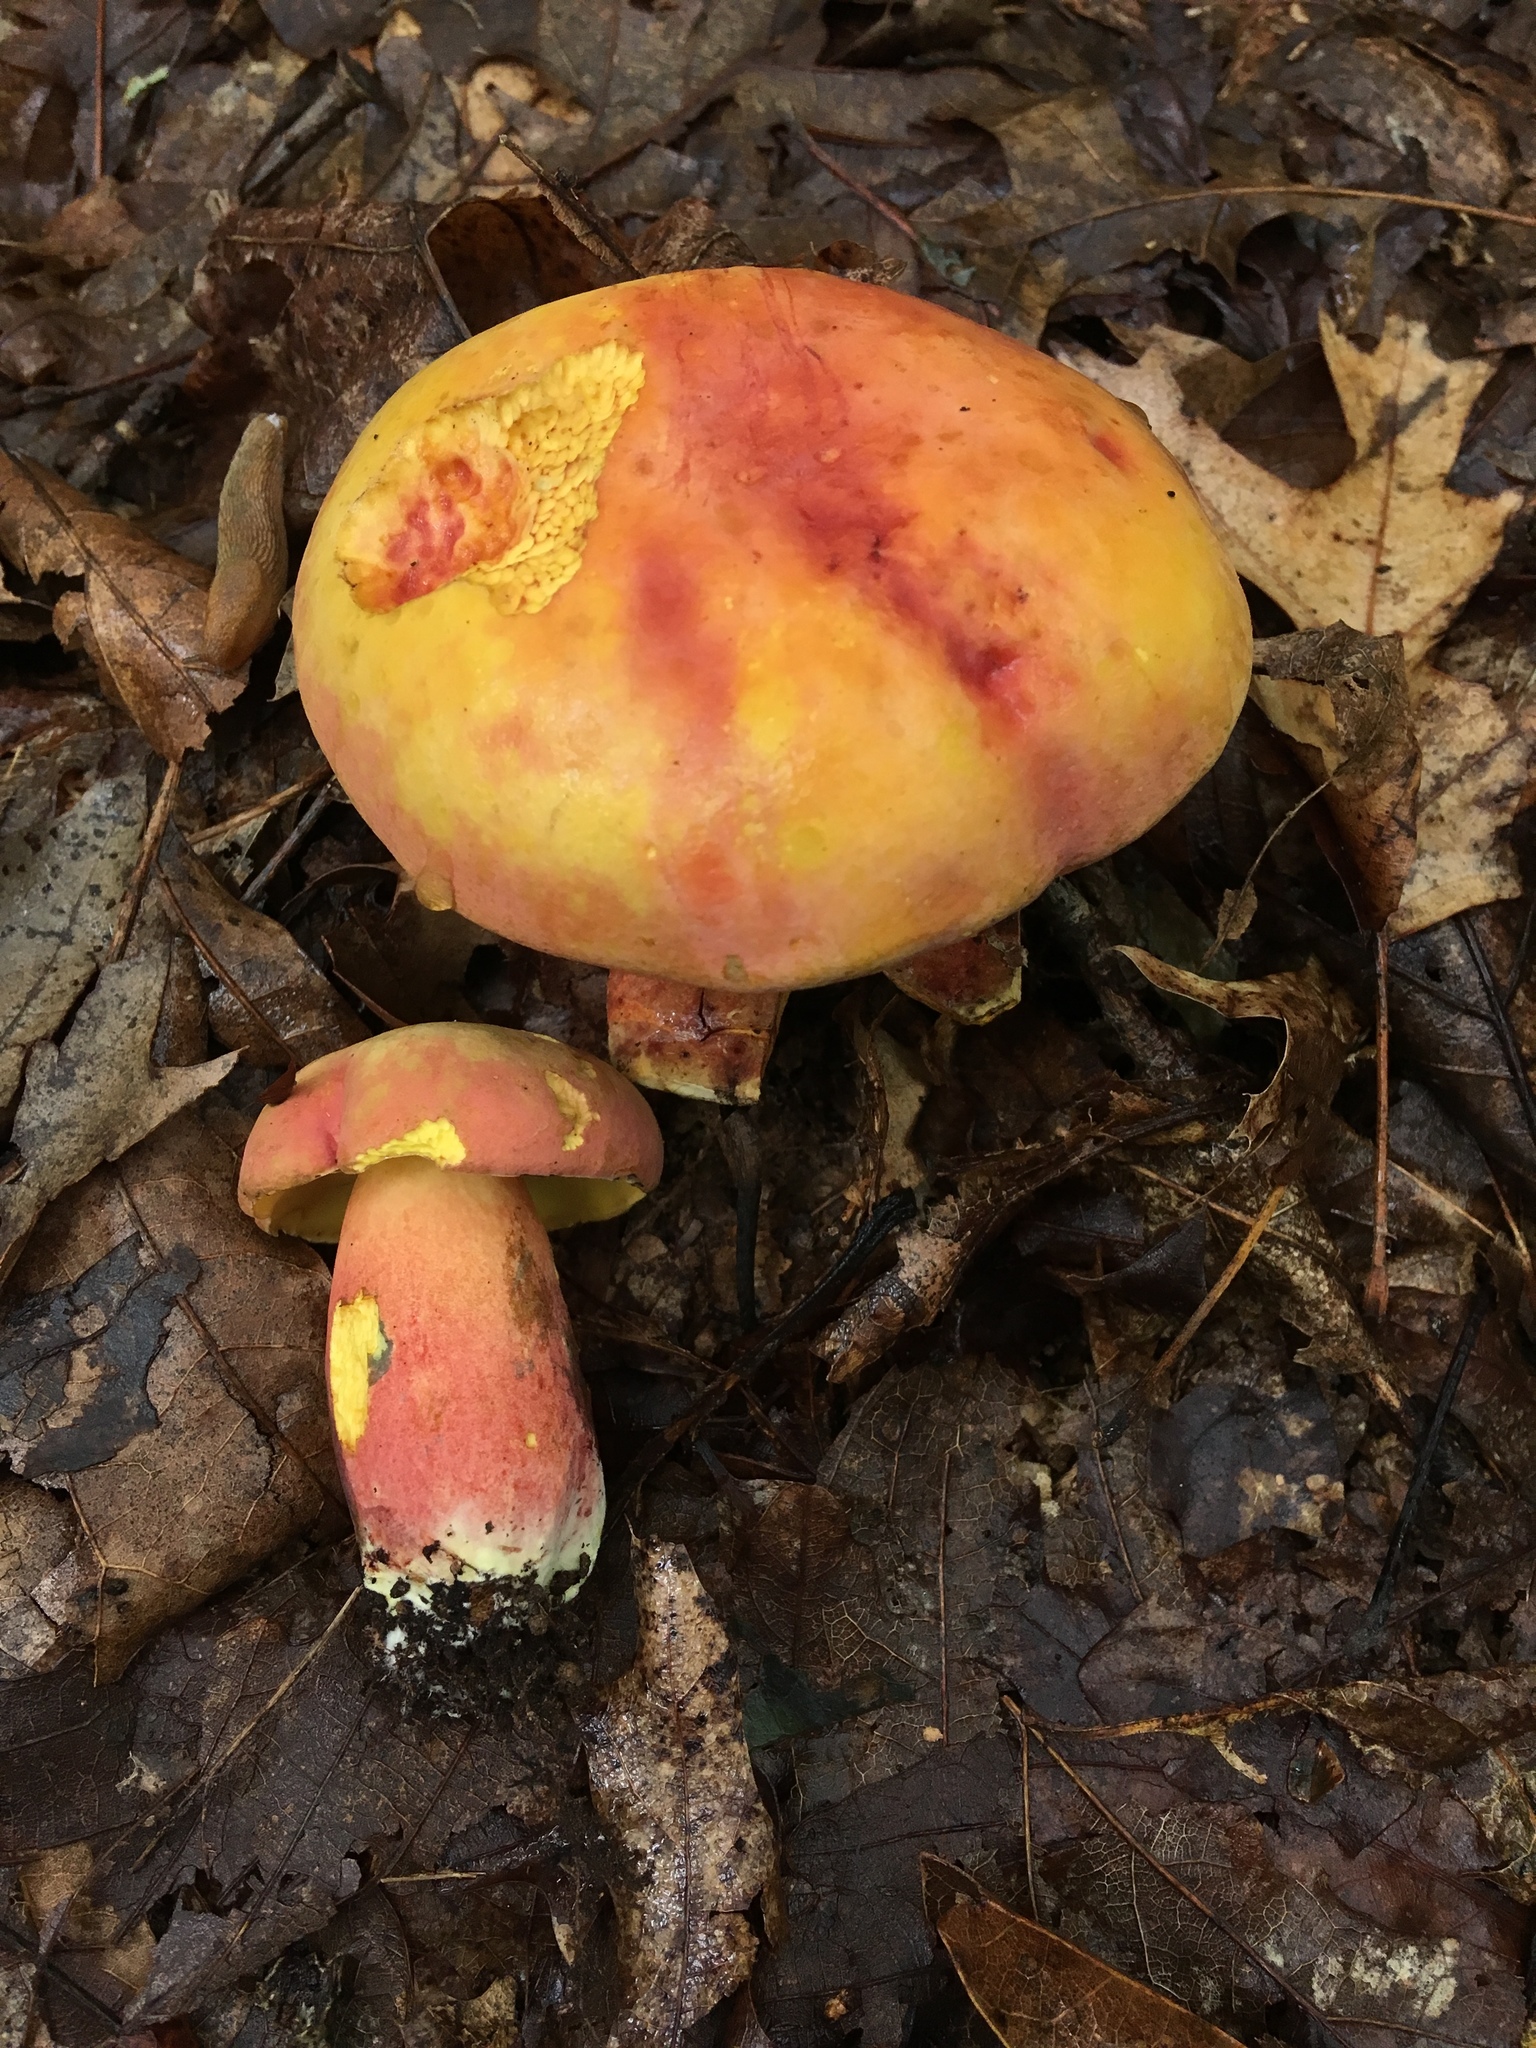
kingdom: Fungi
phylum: Basidiomycota
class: Agaricomycetes
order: Boletales
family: Boletaceae
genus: Lanmaoa
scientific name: Lanmaoa pseudosensibilis
